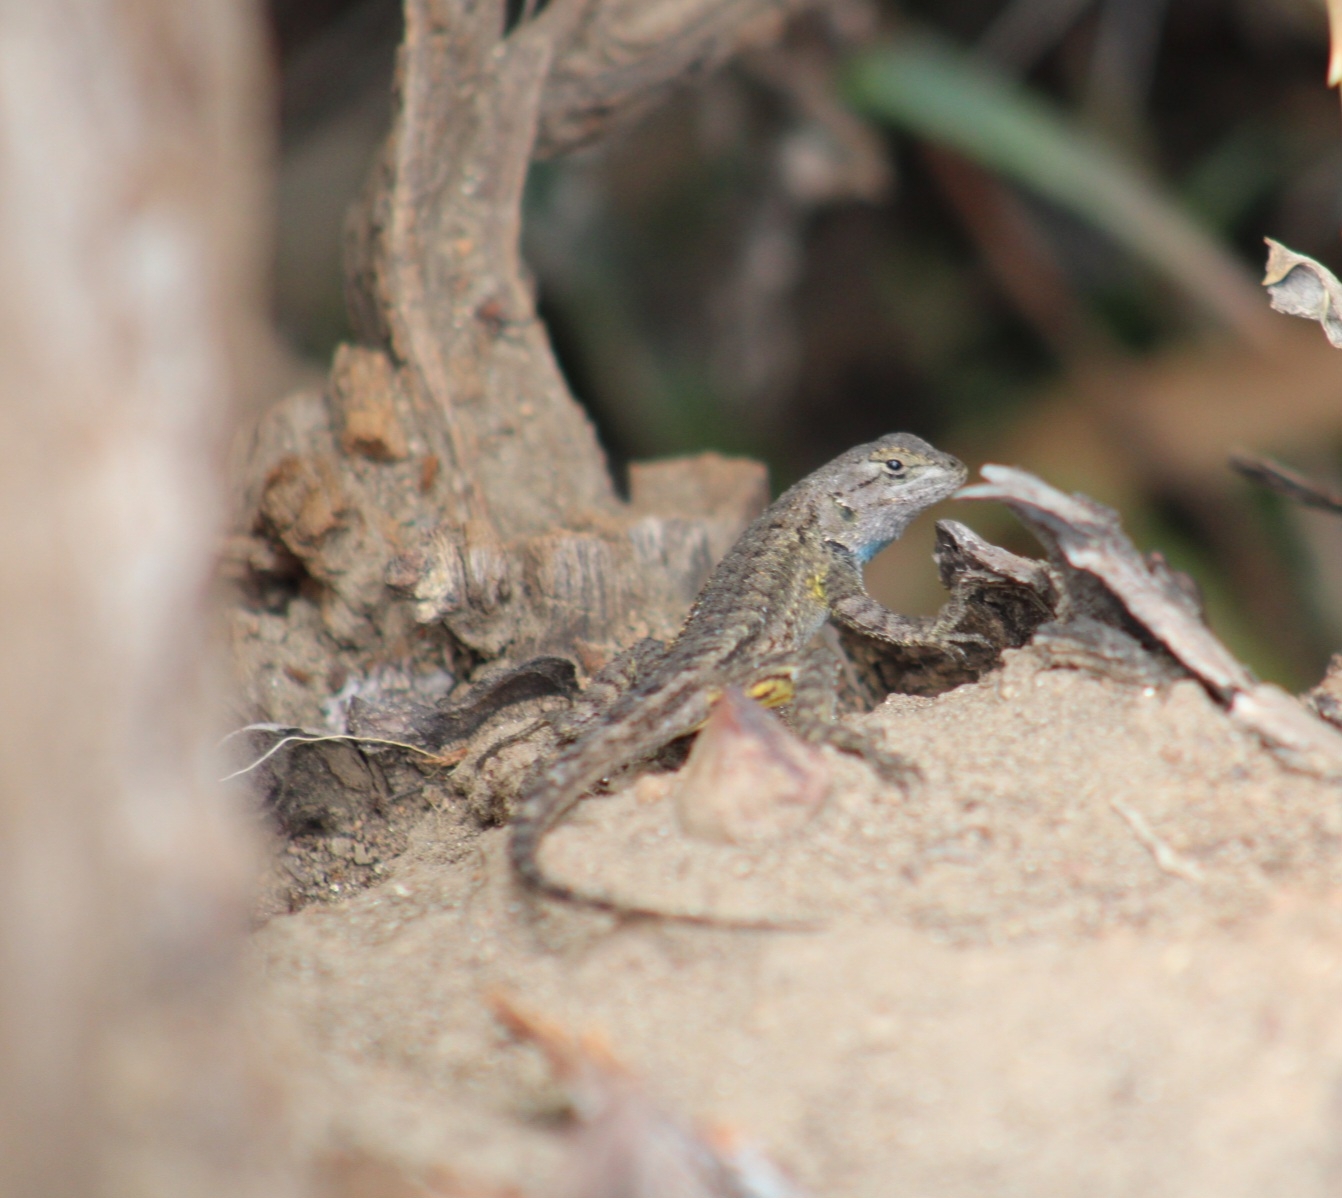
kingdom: Animalia
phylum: Chordata
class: Squamata
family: Phrynosomatidae
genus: Sceloporus
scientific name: Sceloporus occidentalis
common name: Western fence lizard
